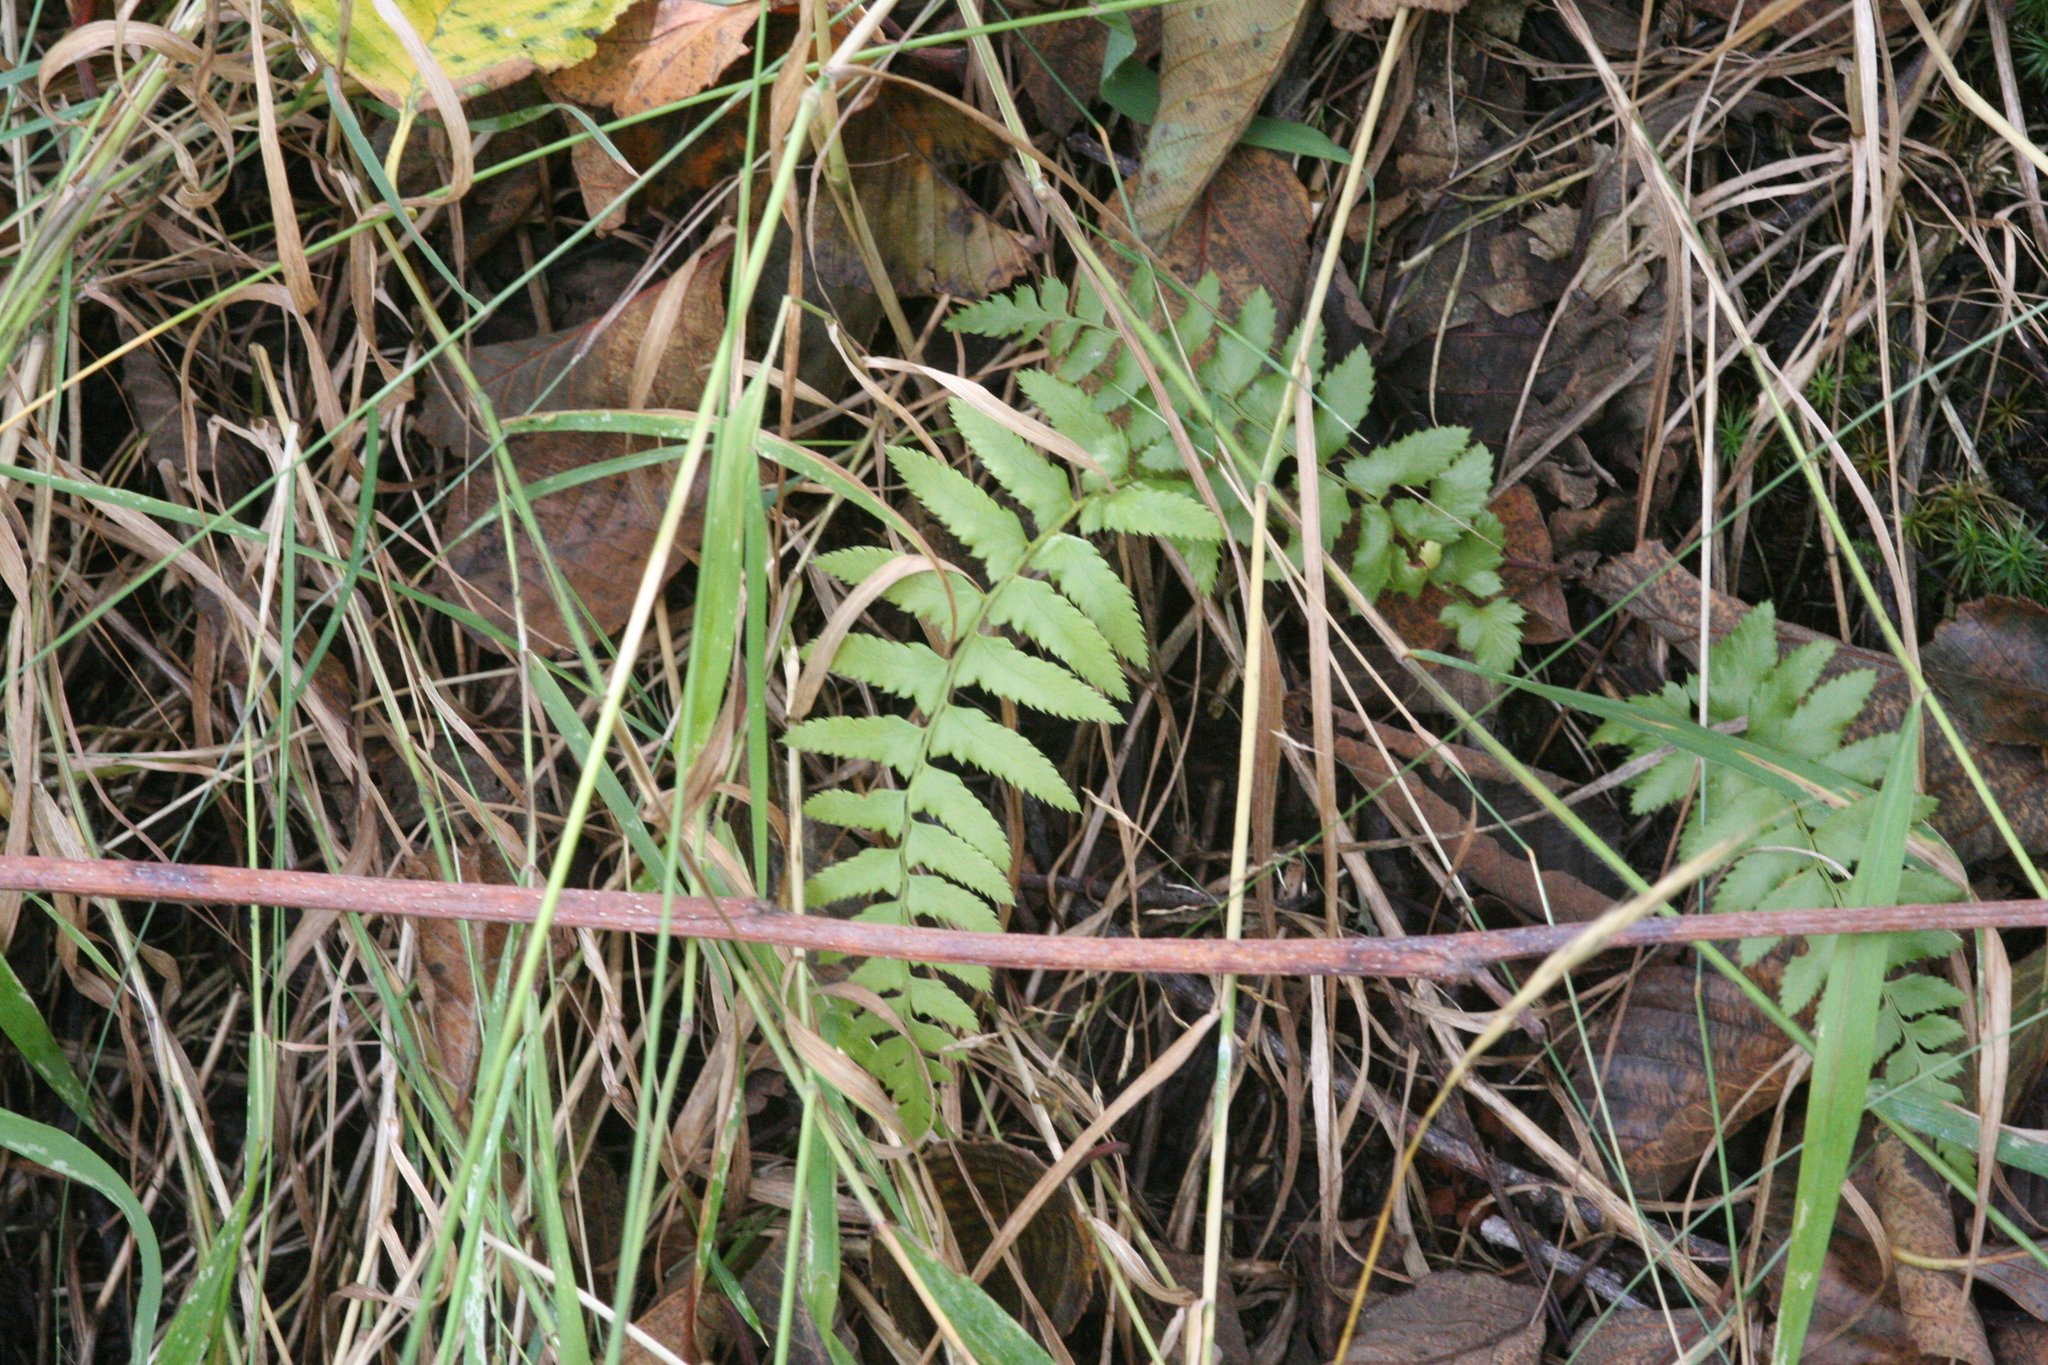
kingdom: Plantae
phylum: Tracheophyta
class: Polypodiopsida
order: Polypodiales
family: Dryopteridaceae
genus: Polystichum
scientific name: Polystichum munitum
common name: Western sword-fern
